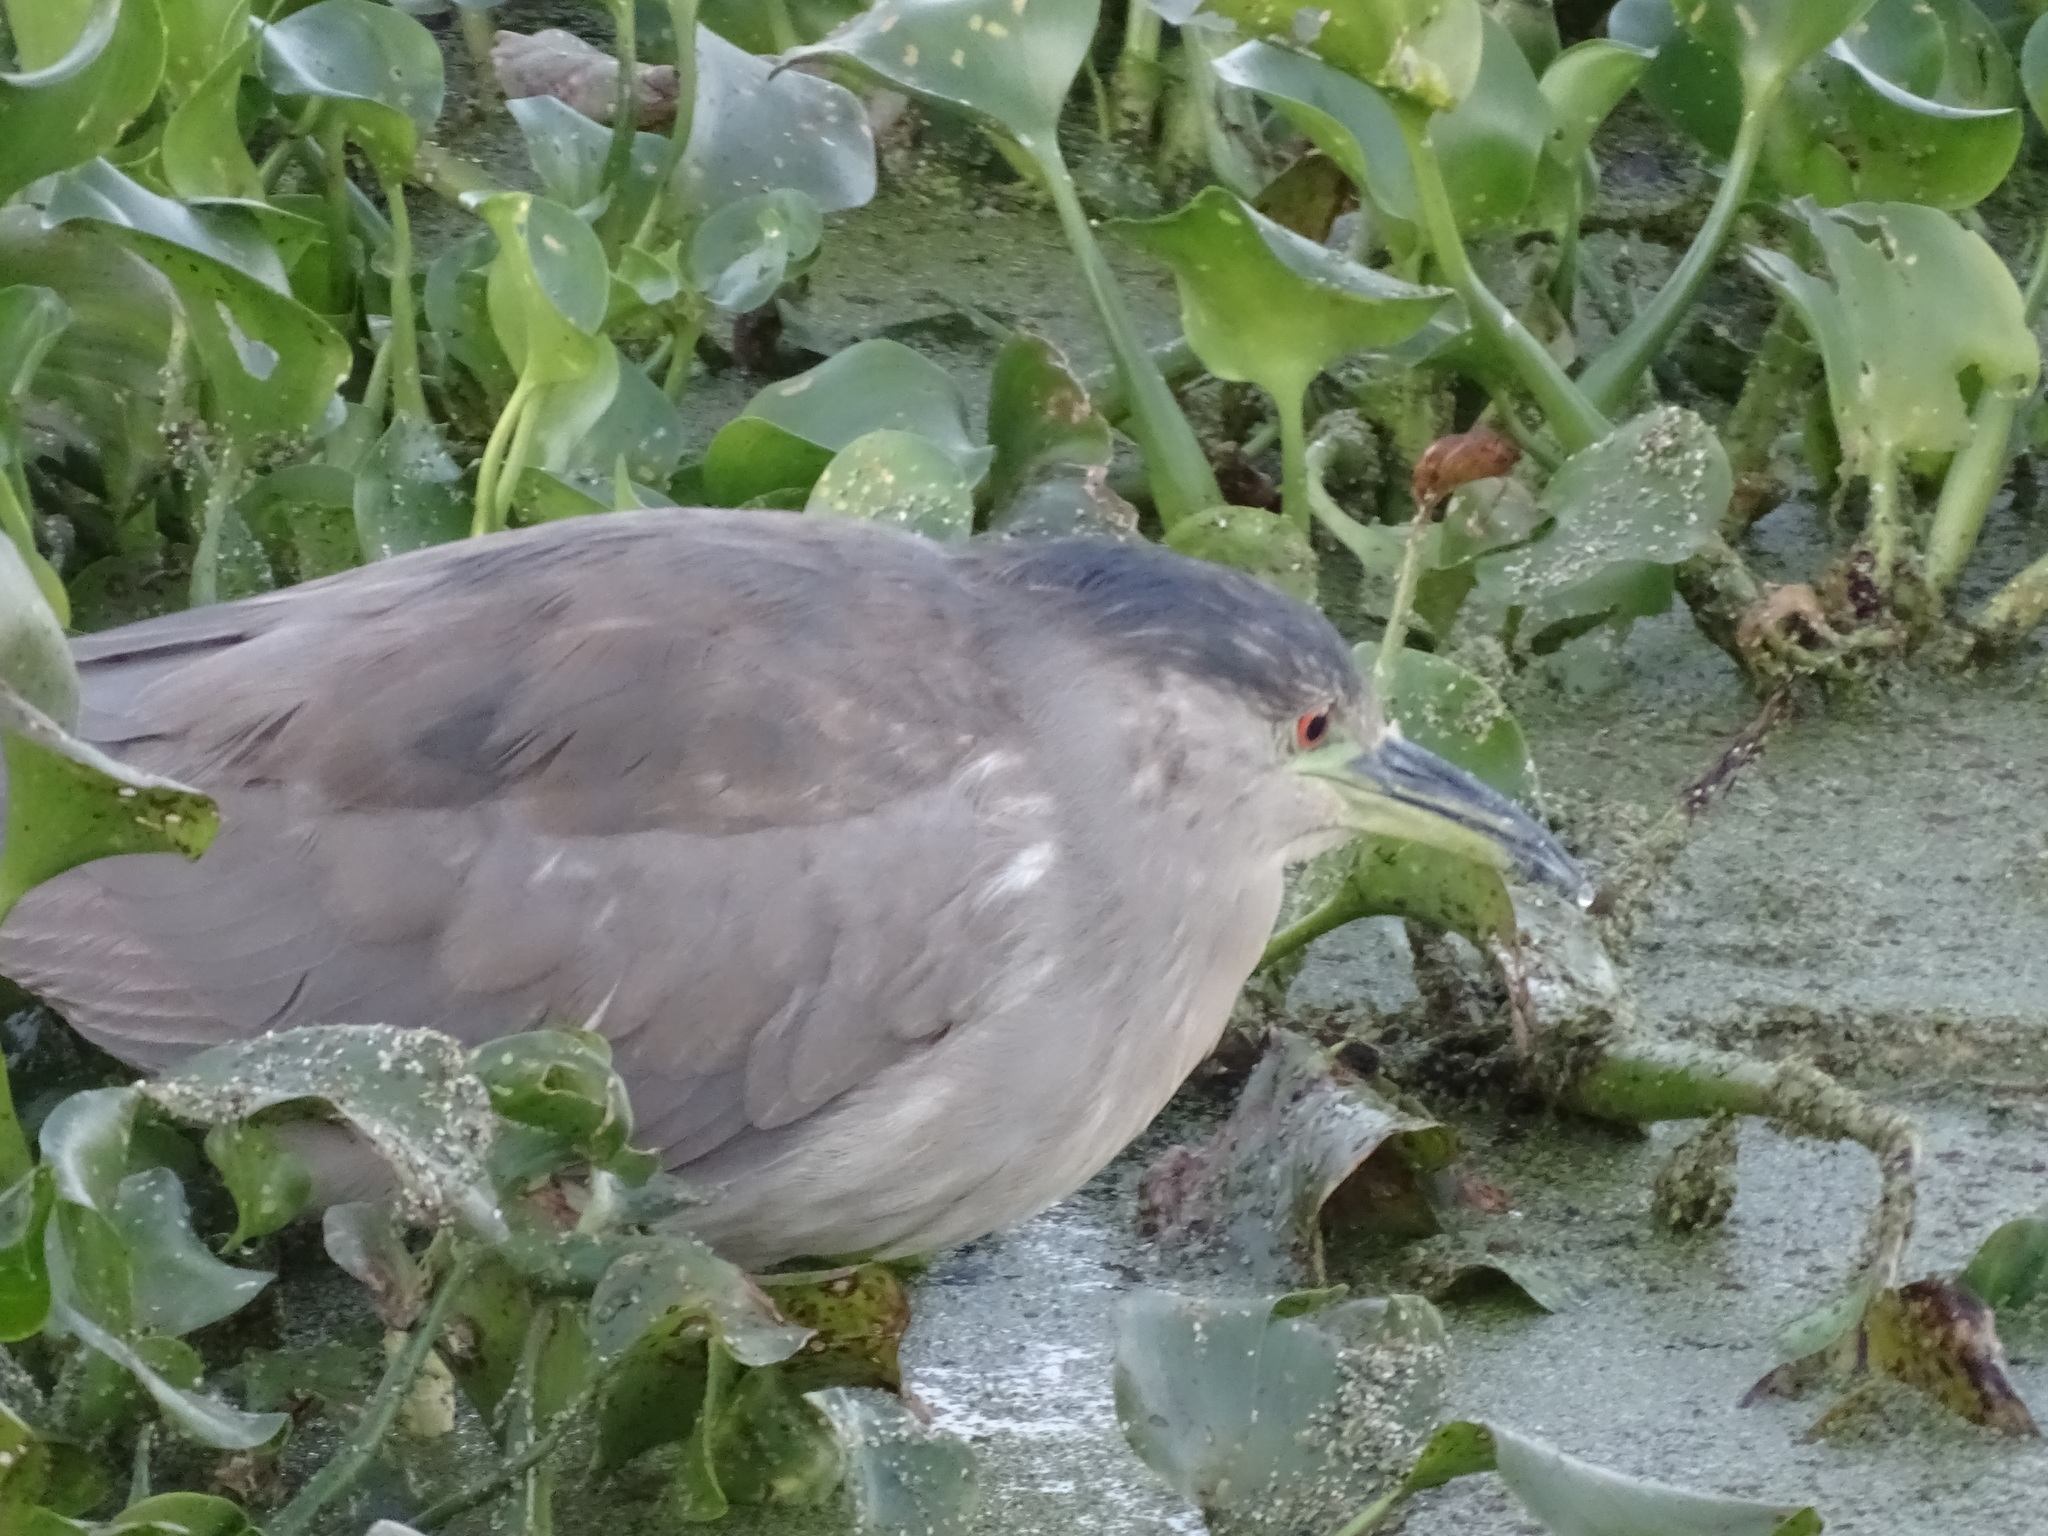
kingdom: Animalia
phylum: Chordata
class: Aves
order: Pelecaniformes
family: Ardeidae
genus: Nycticorax
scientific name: Nycticorax nycticorax
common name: Black-crowned night heron
